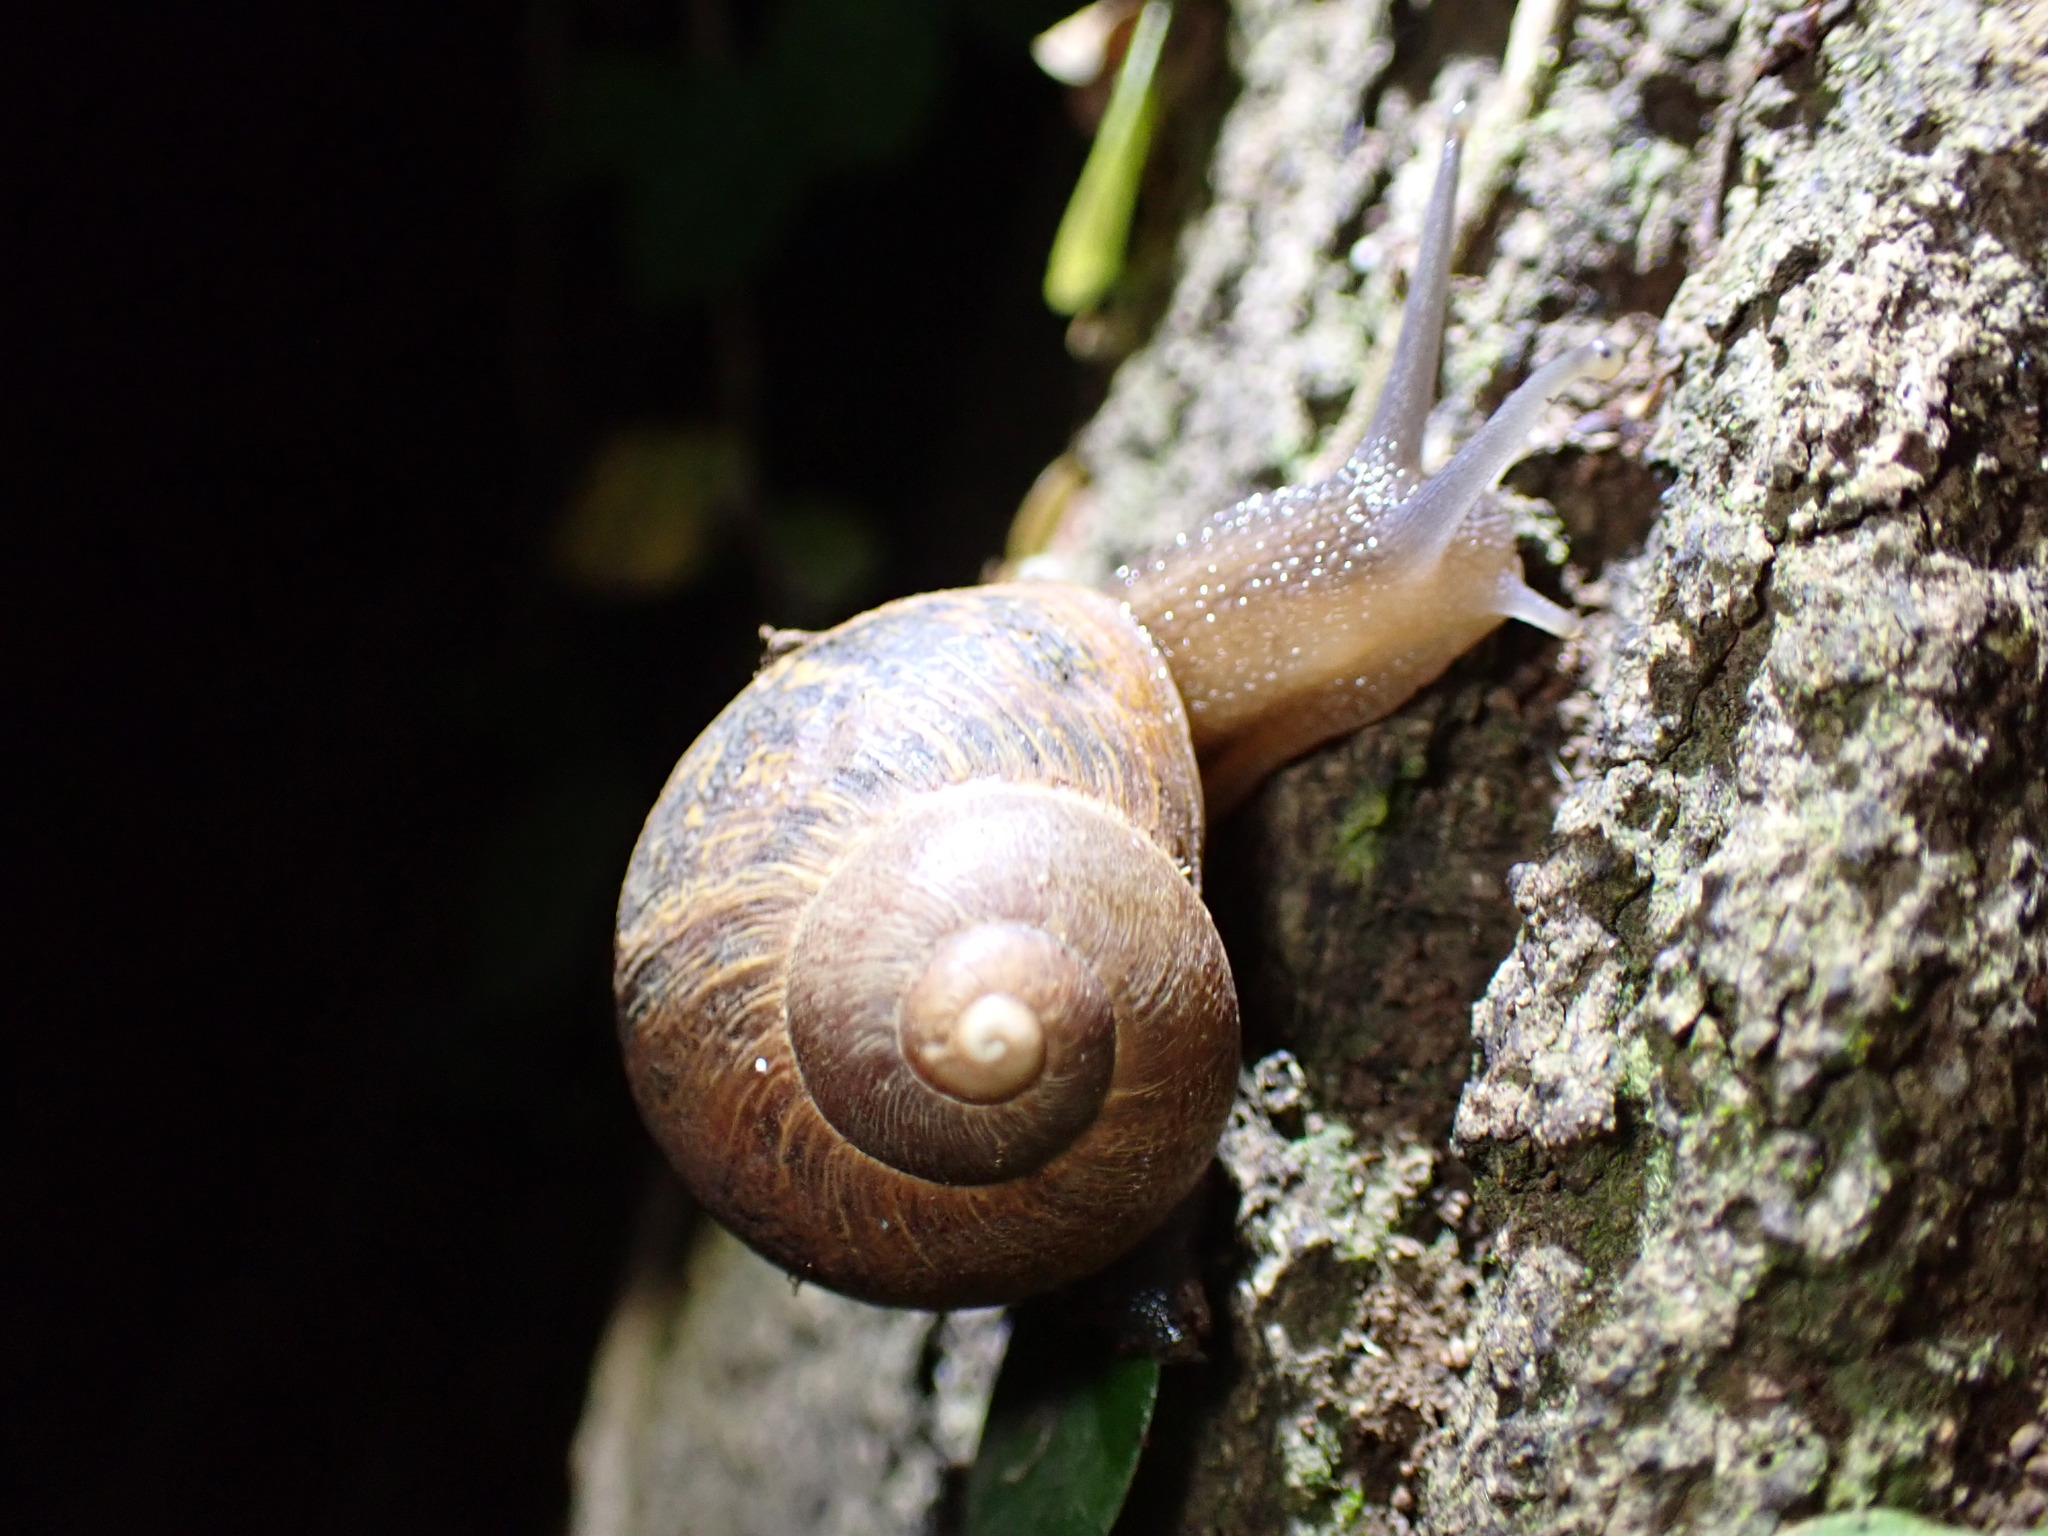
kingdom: Animalia
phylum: Mollusca
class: Gastropoda
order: Stylommatophora
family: Helicidae
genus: Cornu
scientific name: Cornu aspersum
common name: Brown garden snail
